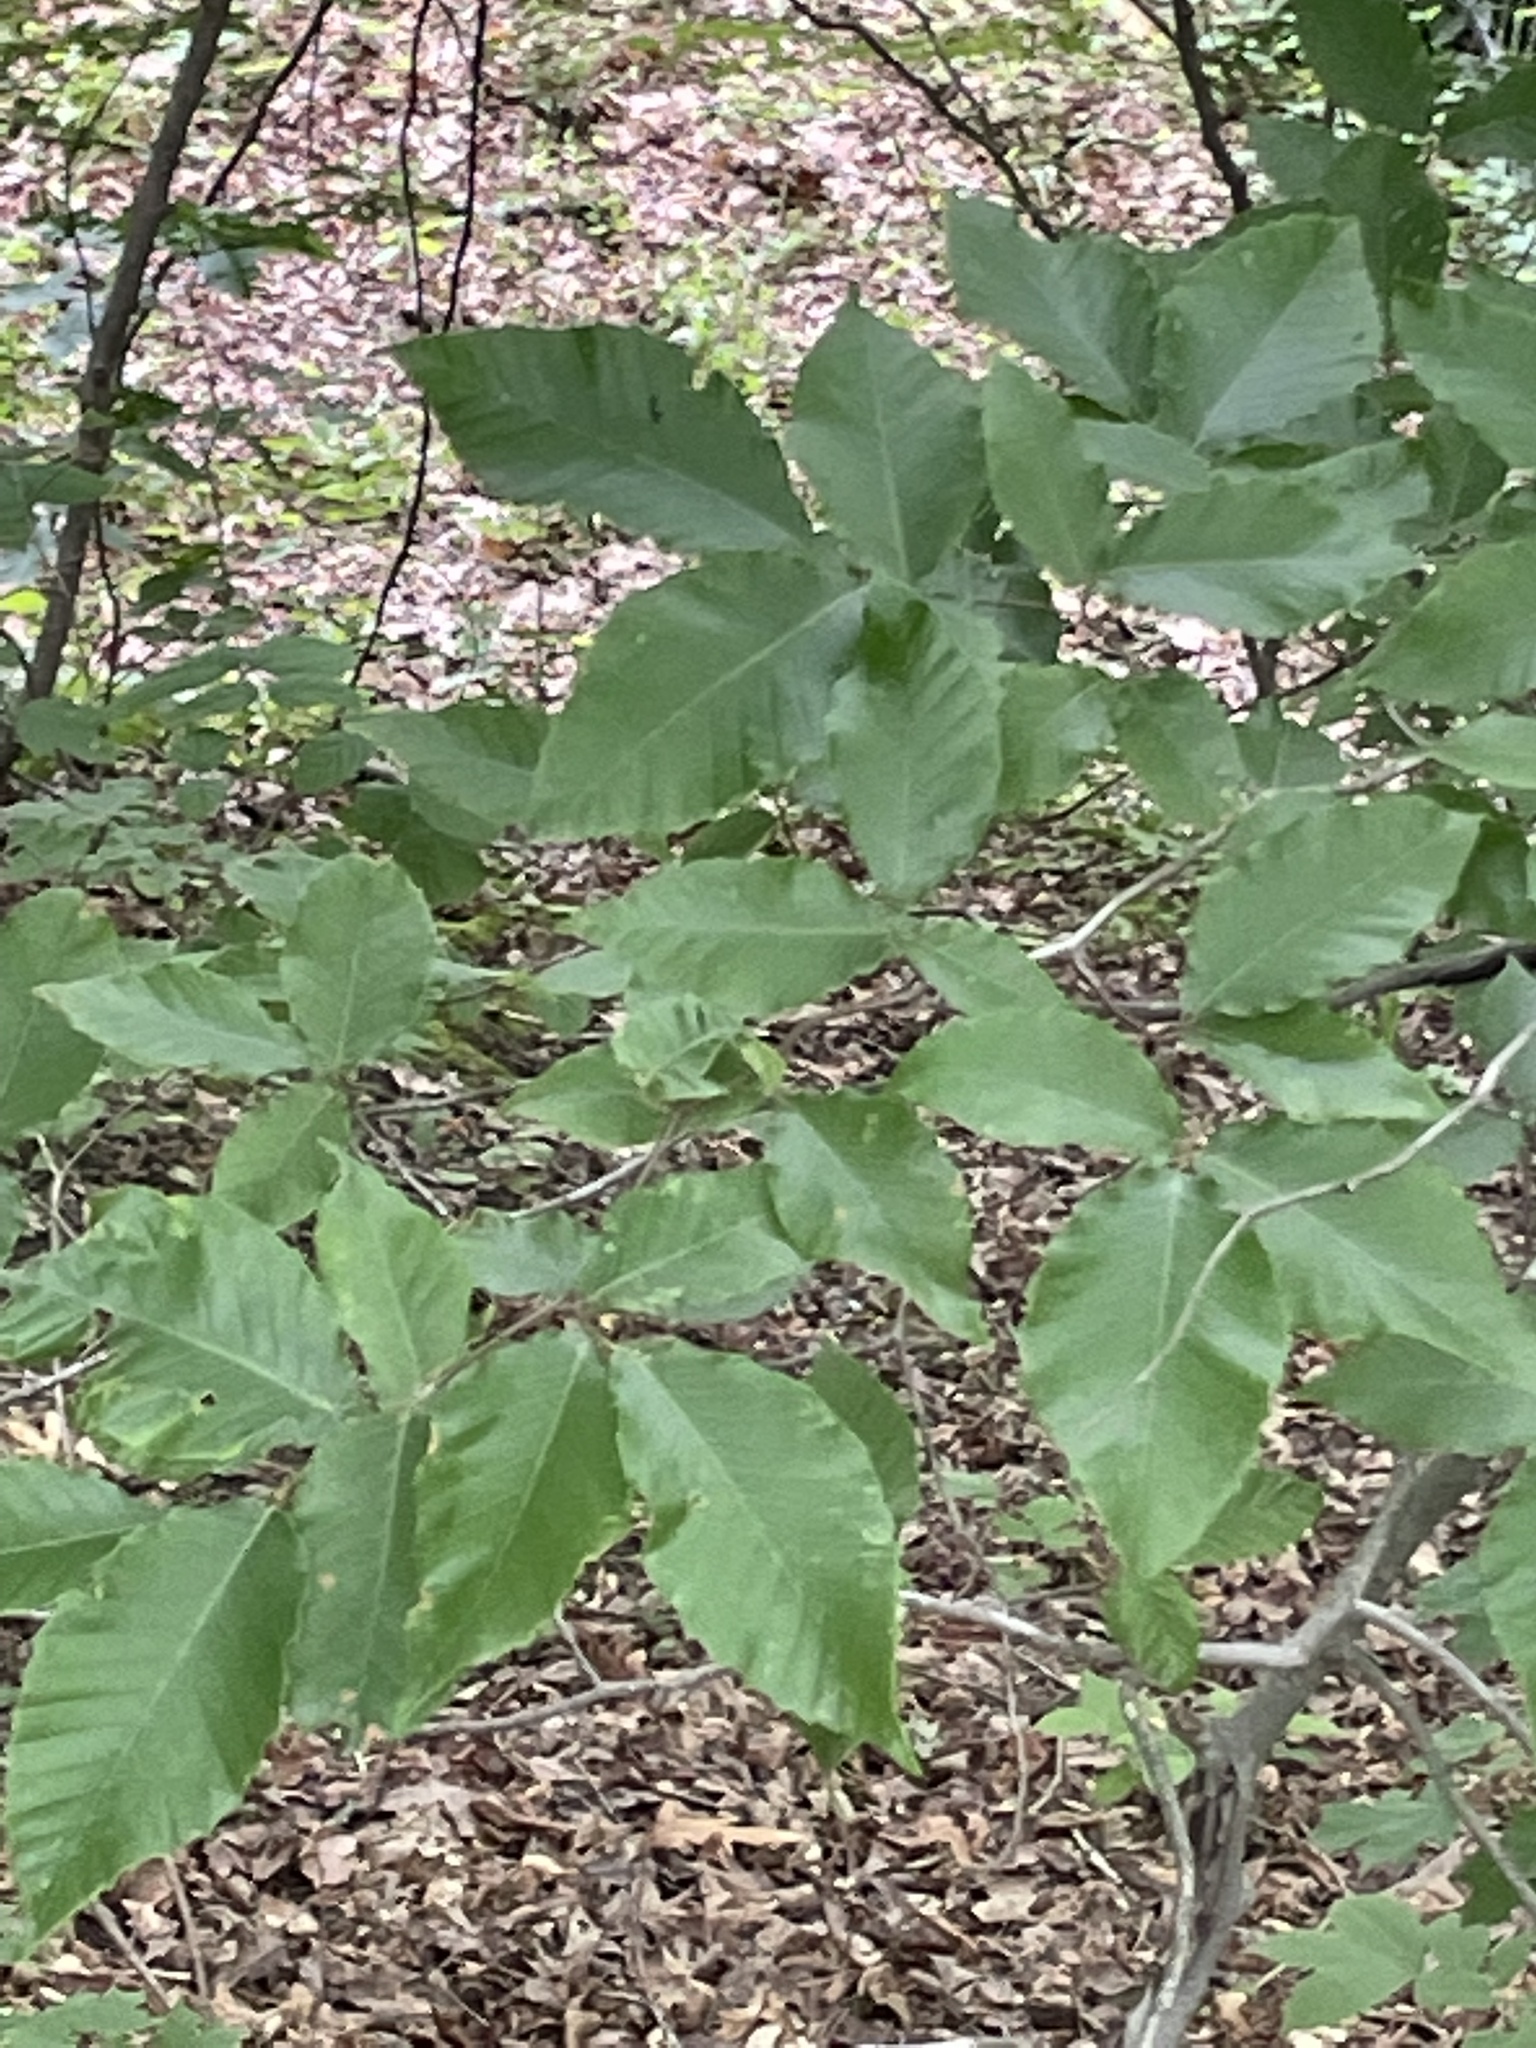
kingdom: Plantae
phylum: Tracheophyta
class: Magnoliopsida
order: Fagales
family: Fagaceae
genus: Fagus
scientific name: Fagus grandifolia
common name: American beech
